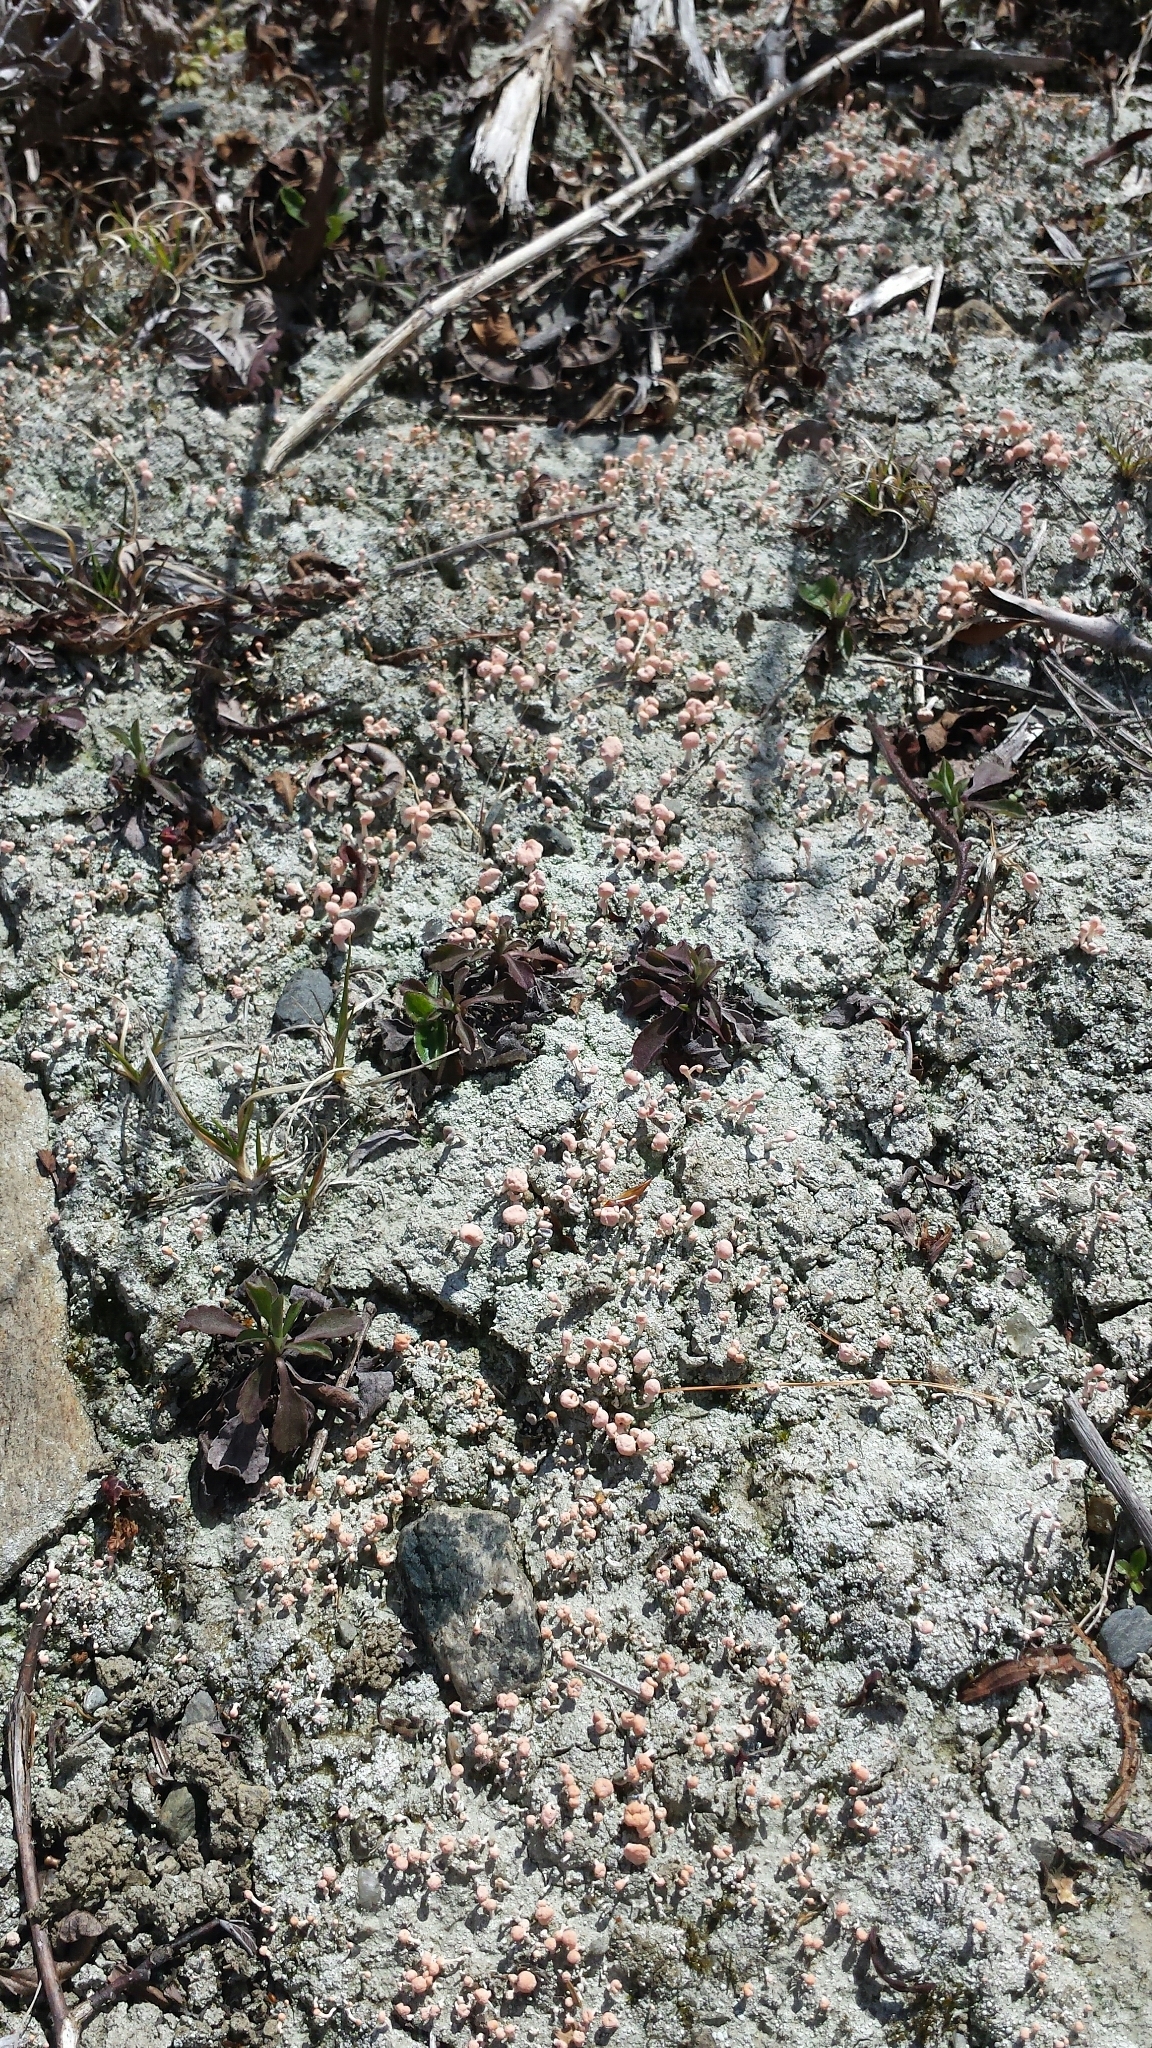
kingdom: Fungi
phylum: Ascomycota
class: Lecanoromycetes
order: Pertusariales
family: Icmadophilaceae
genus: Dibaeis
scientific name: Dibaeis baeomyces
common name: Pink earth lichen
